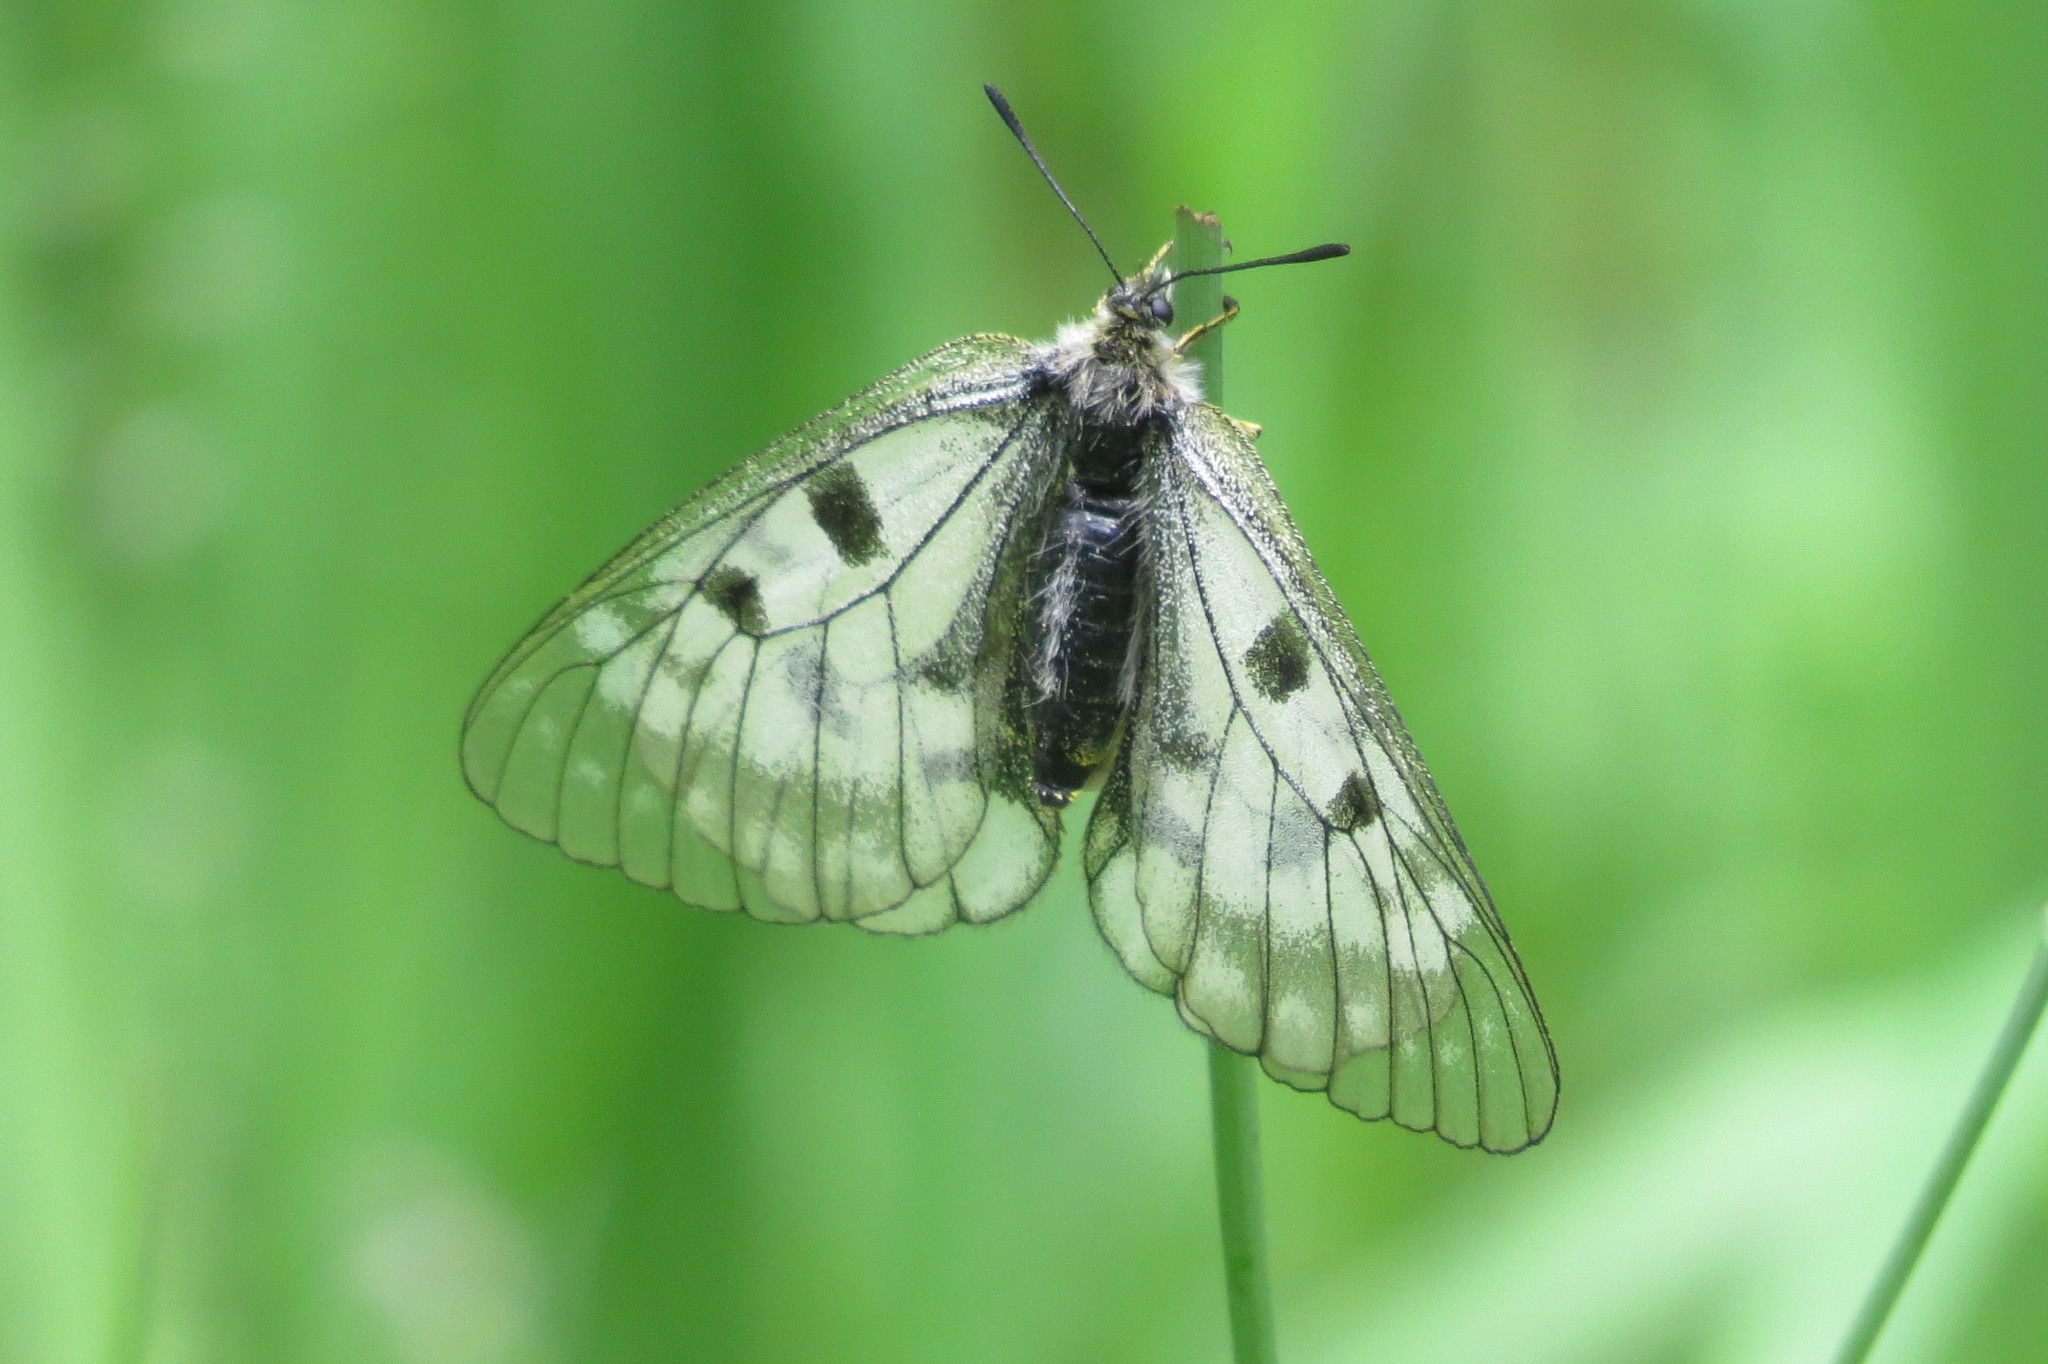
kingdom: Animalia
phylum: Arthropoda
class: Insecta
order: Lepidoptera
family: Papilionidae
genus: Parnassius
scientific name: Parnassius mnemosyne
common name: Clouded apollo
